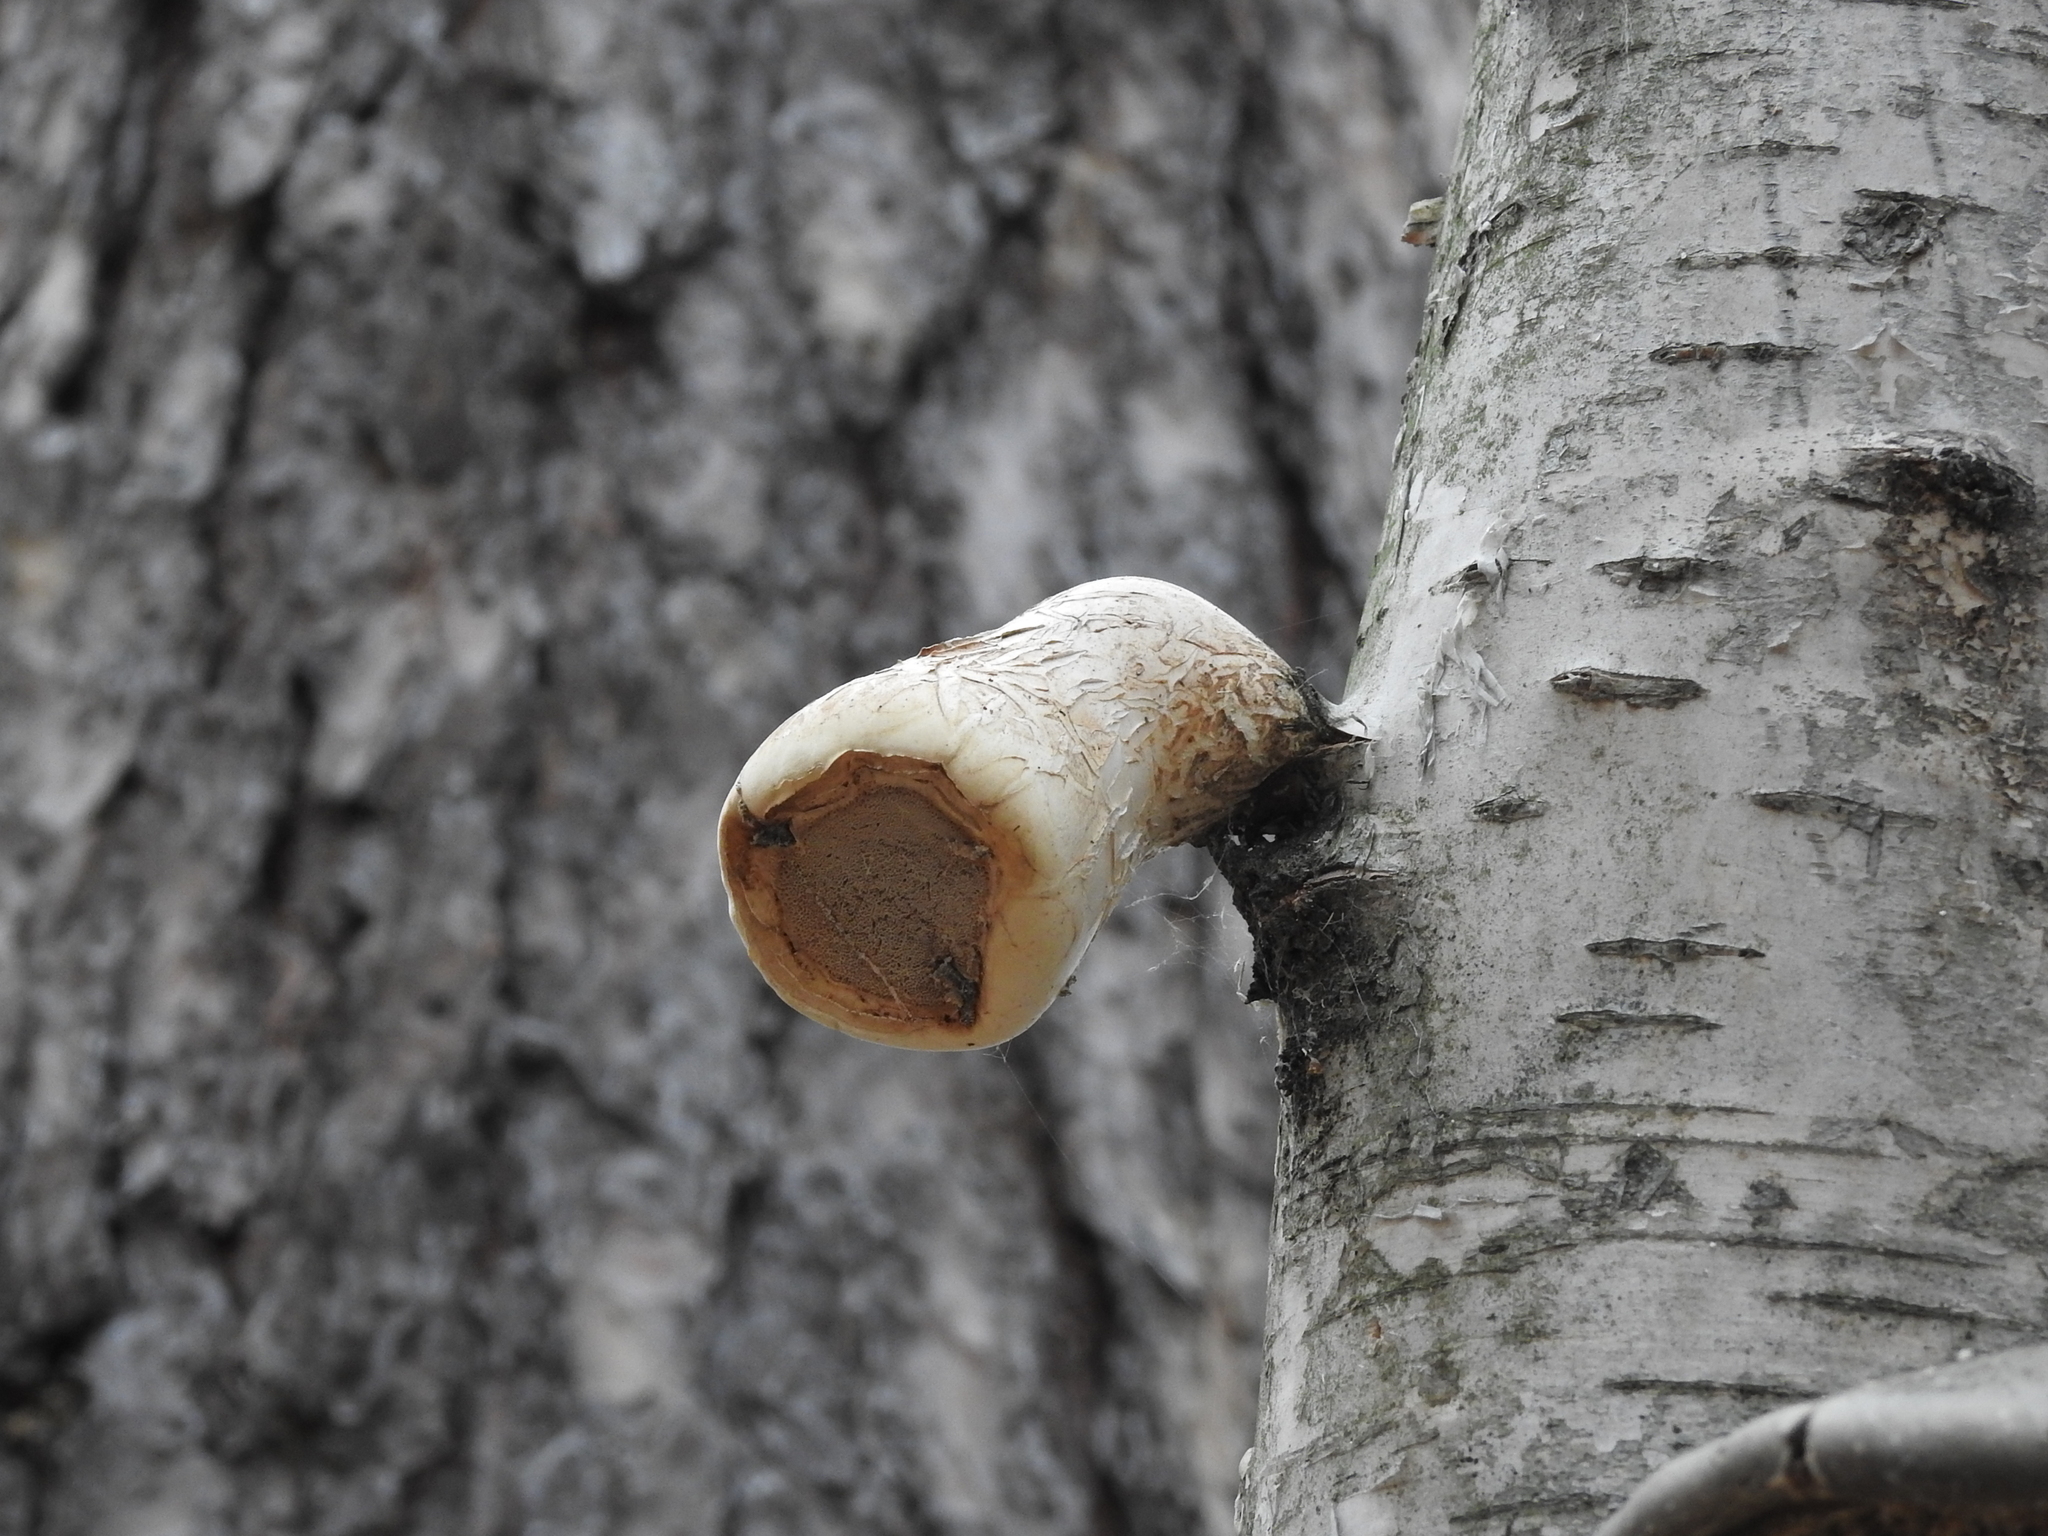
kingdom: Fungi
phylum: Basidiomycota
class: Agaricomycetes
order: Polyporales
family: Fomitopsidaceae
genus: Fomitopsis
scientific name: Fomitopsis betulina
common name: Birch polypore
